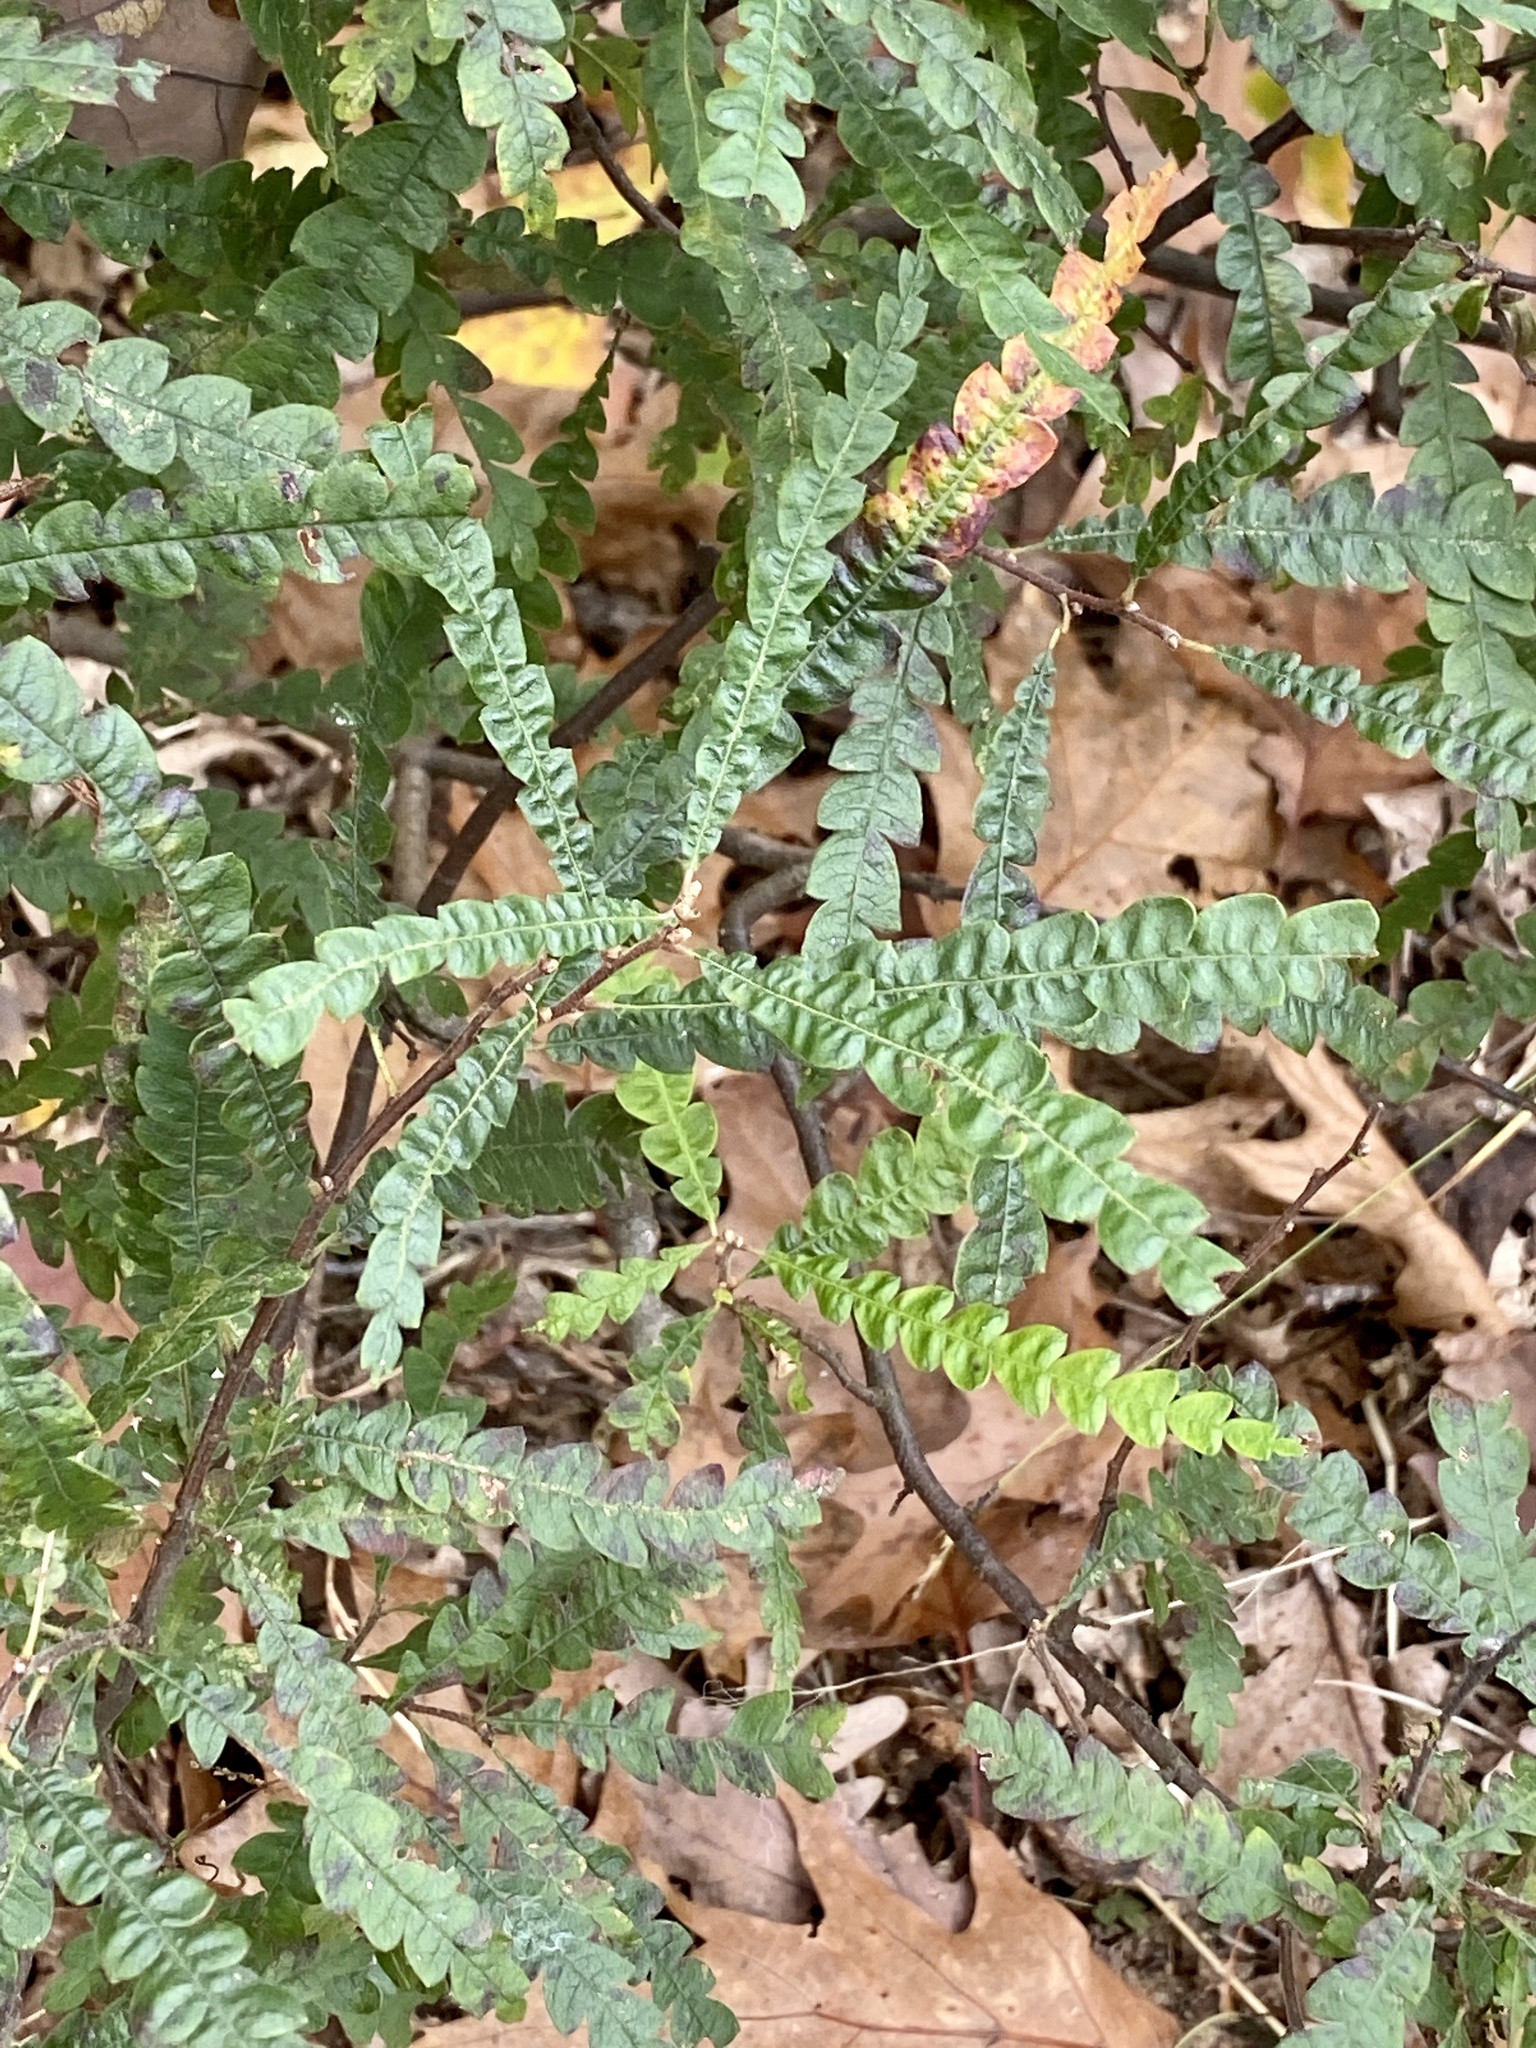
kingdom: Plantae
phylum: Tracheophyta
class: Magnoliopsida
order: Fagales
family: Myricaceae
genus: Comptonia
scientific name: Comptonia peregrina
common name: Sweet-fern
